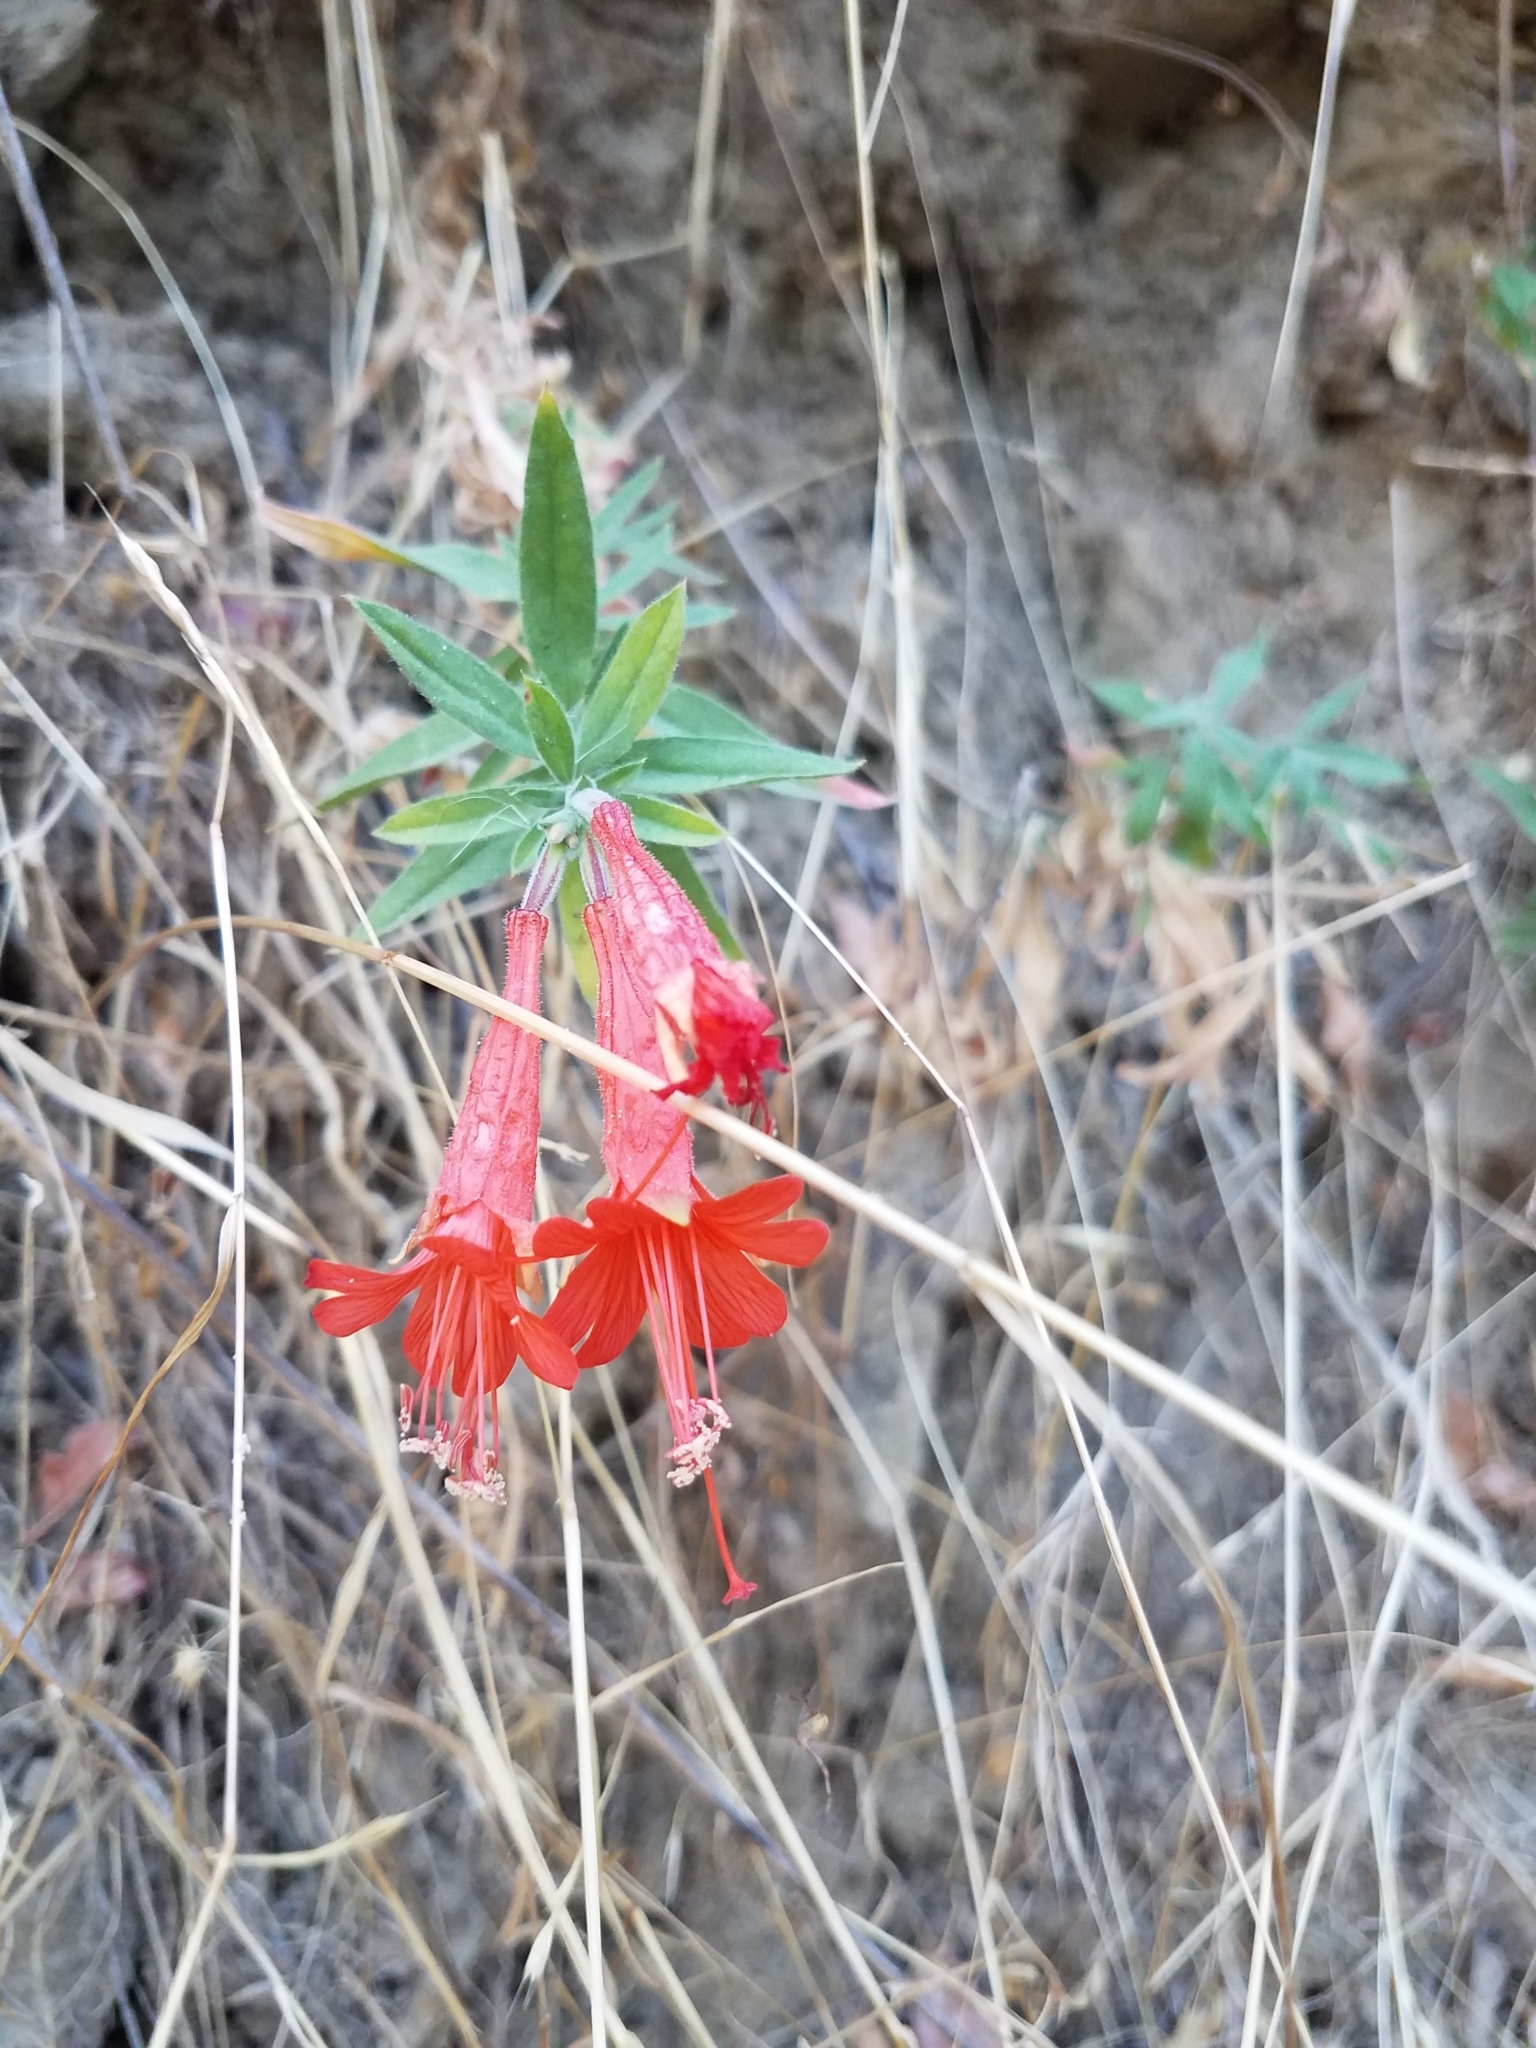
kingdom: Plantae
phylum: Tracheophyta
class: Magnoliopsida
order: Myrtales
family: Onagraceae
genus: Epilobium
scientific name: Epilobium canum
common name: California-fuchsia
